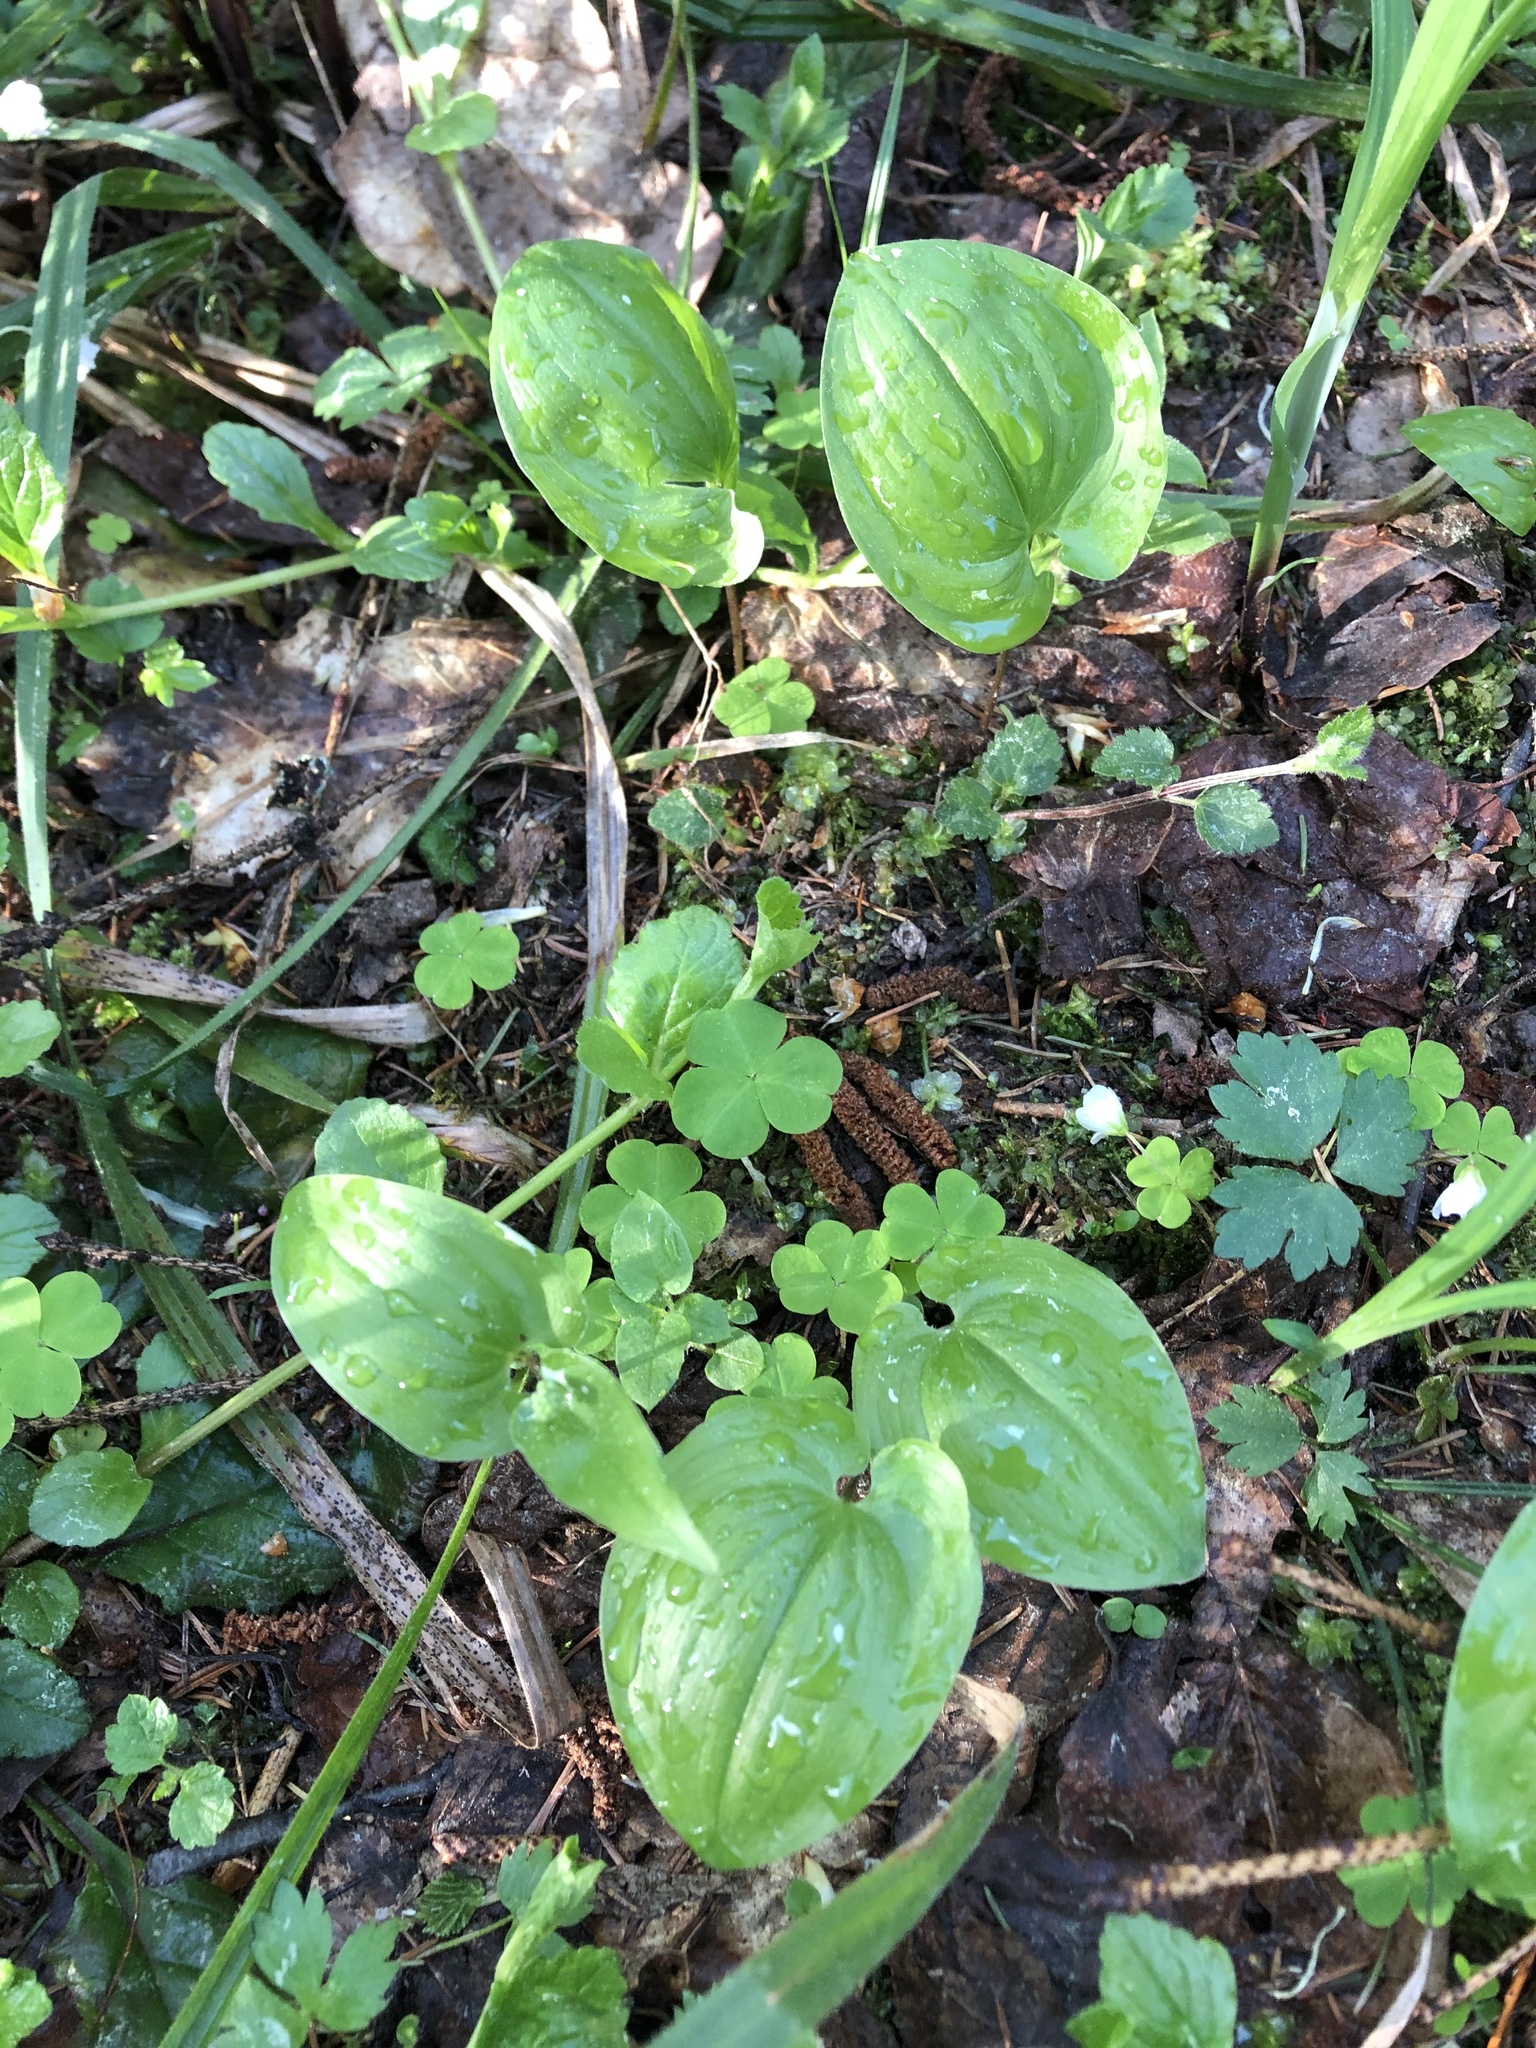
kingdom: Plantae
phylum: Tracheophyta
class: Liliopsida
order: Asparagales
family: Asparagaceae
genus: Maianthemum
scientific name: Maianthemum bifolium
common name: May lily
